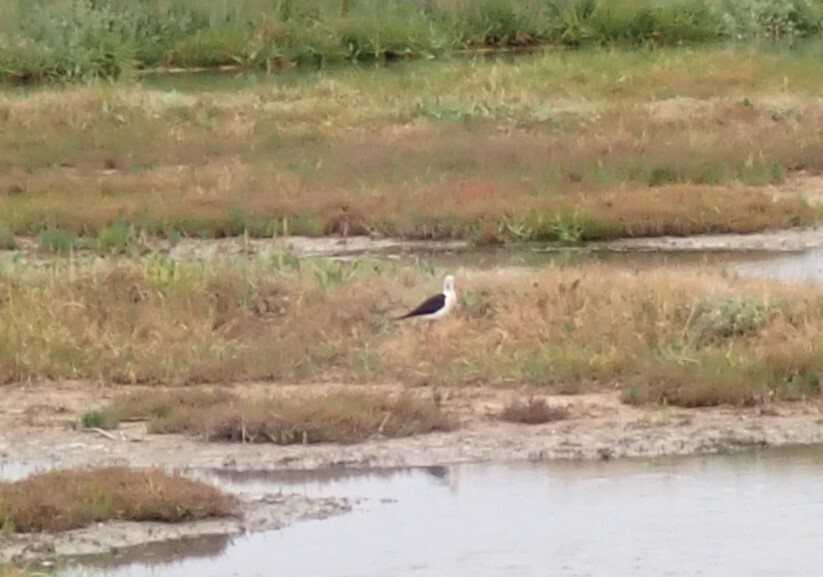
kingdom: Animalia
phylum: Chordata
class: Aves
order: Charadriiformes
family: Recurvirostridae
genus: Himantopus
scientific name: Himantopus himantopus
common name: Black-winged stilt
